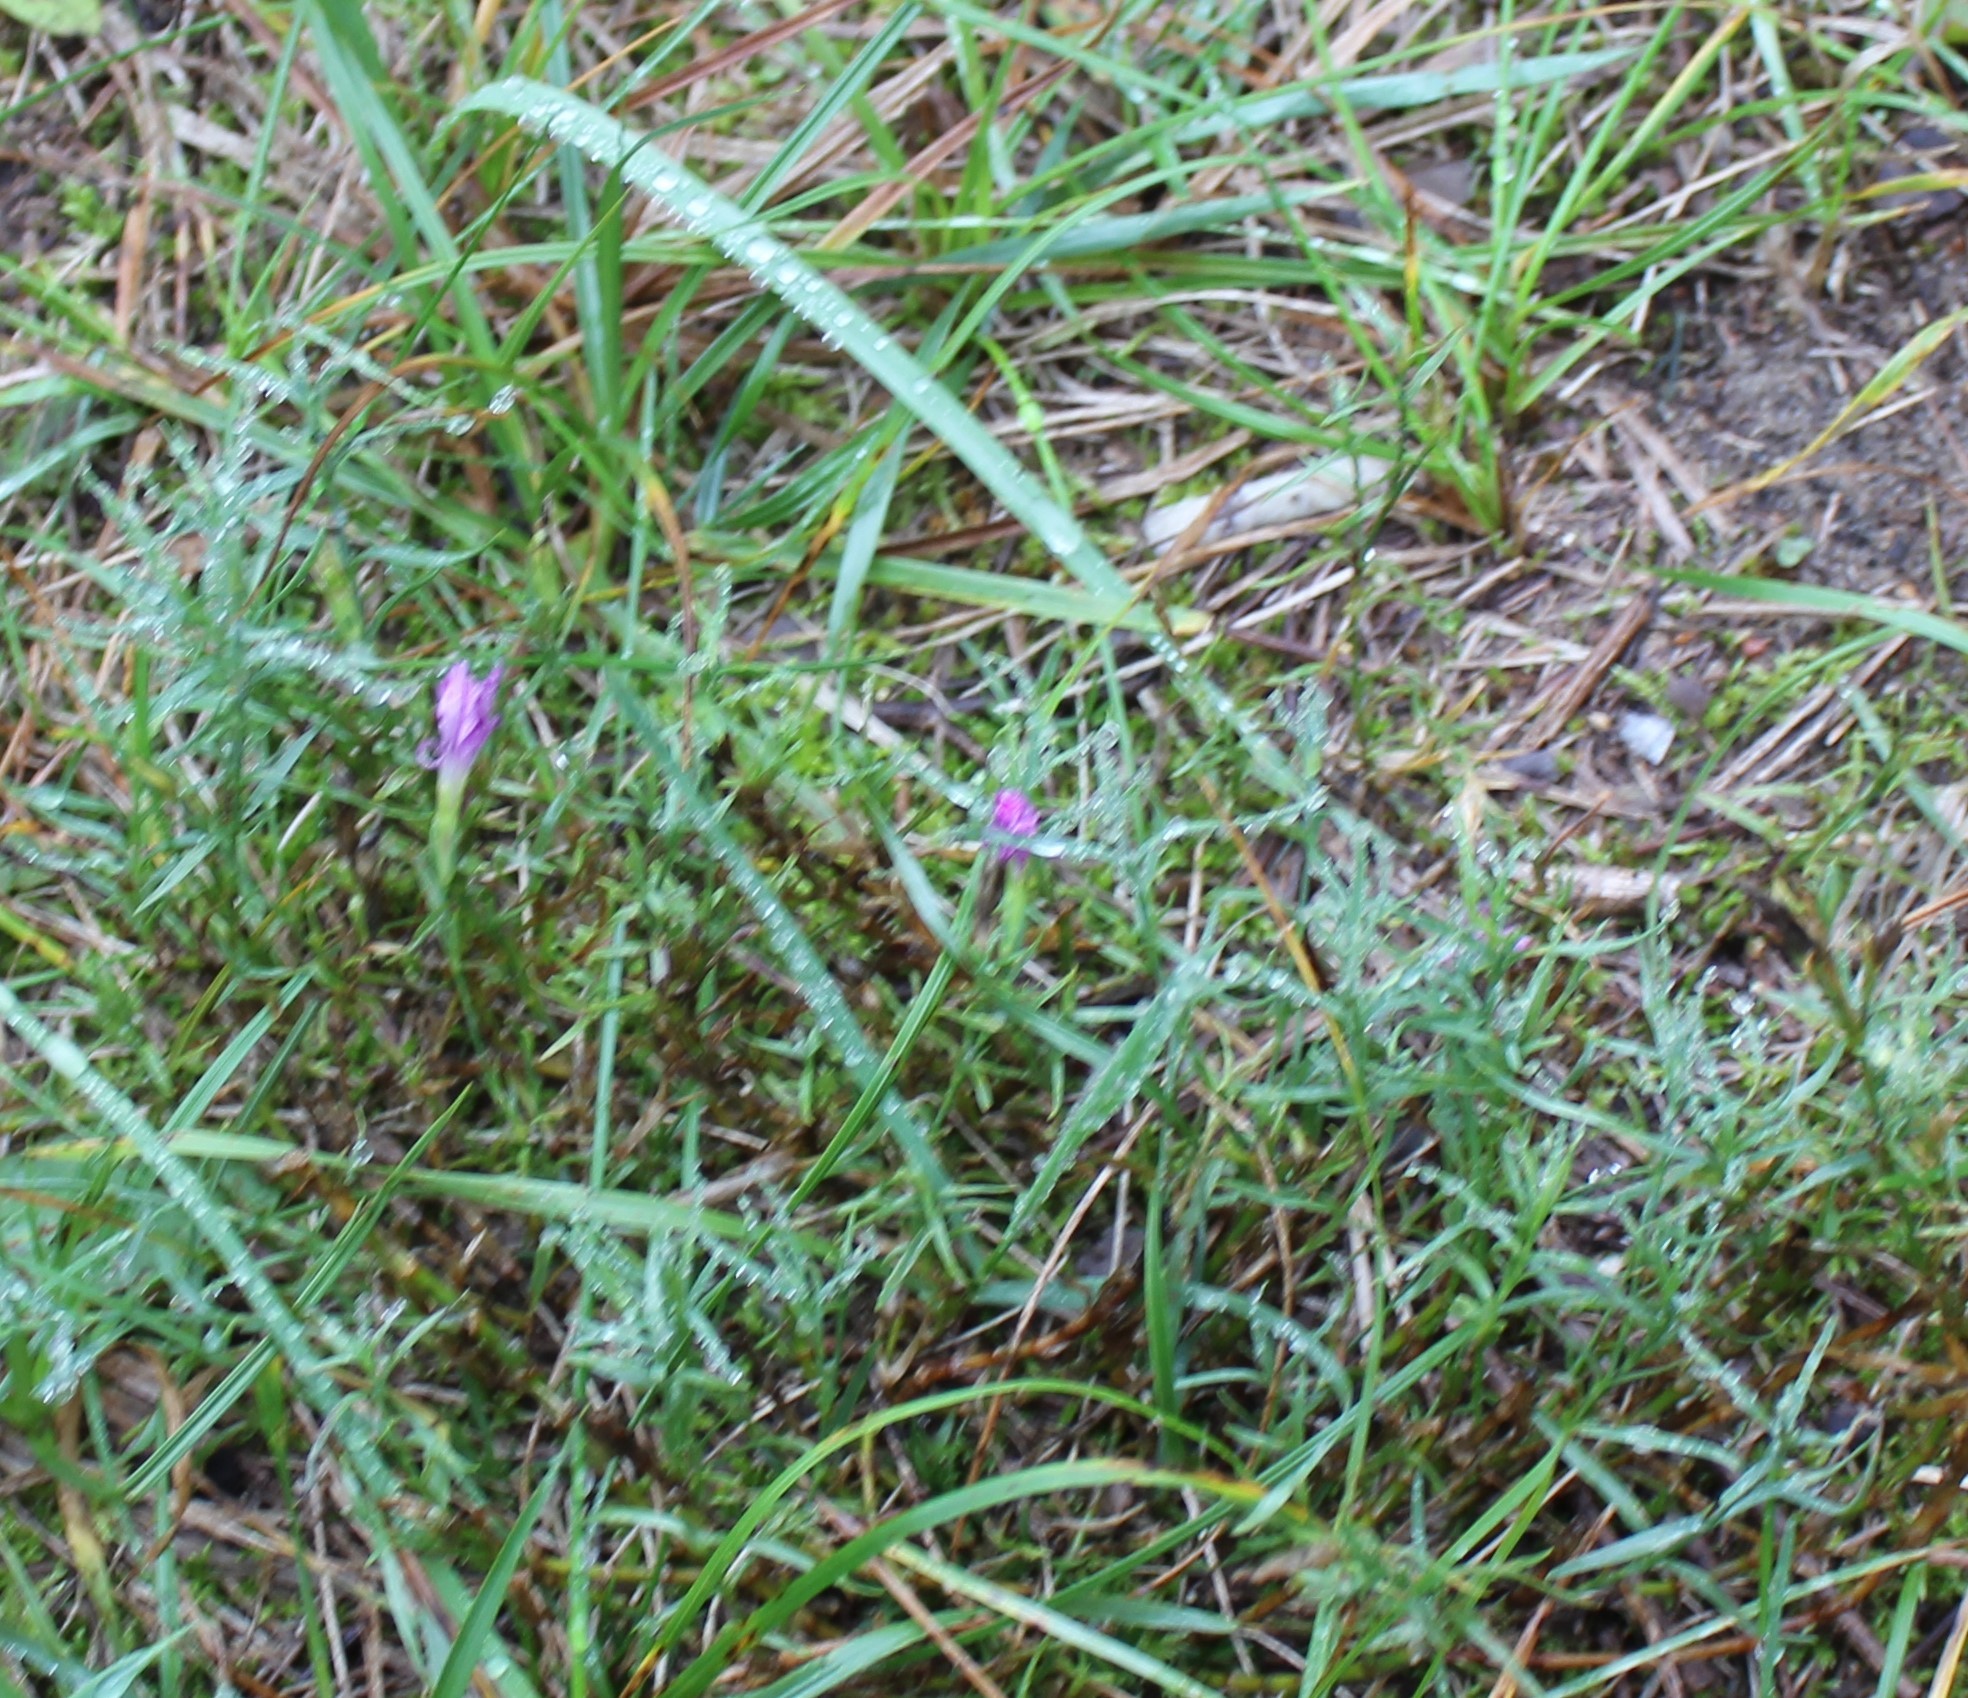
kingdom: Plantae
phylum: Tracheophyta
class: Magnoliopsida
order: Caryophyllales
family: Caryophyllaceae
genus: Dianthus
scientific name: Dianthus chinensis
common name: Rainbow pink
